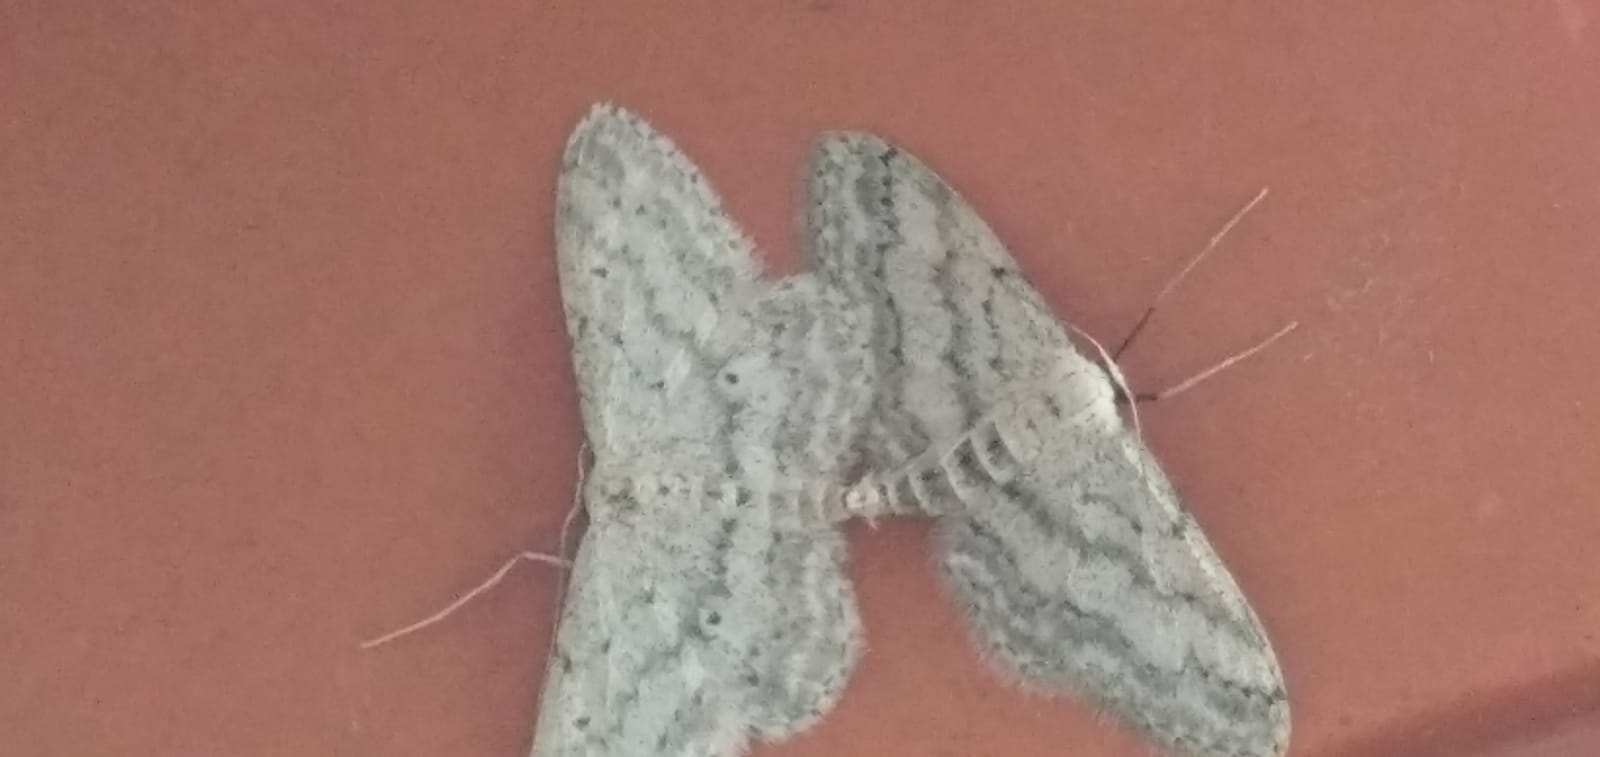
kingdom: Animalia
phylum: Arthropoda
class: Insecta
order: Lepidoptera
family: Geometridae
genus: Idaea
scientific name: Idaea seriata
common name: Small dusty wave
